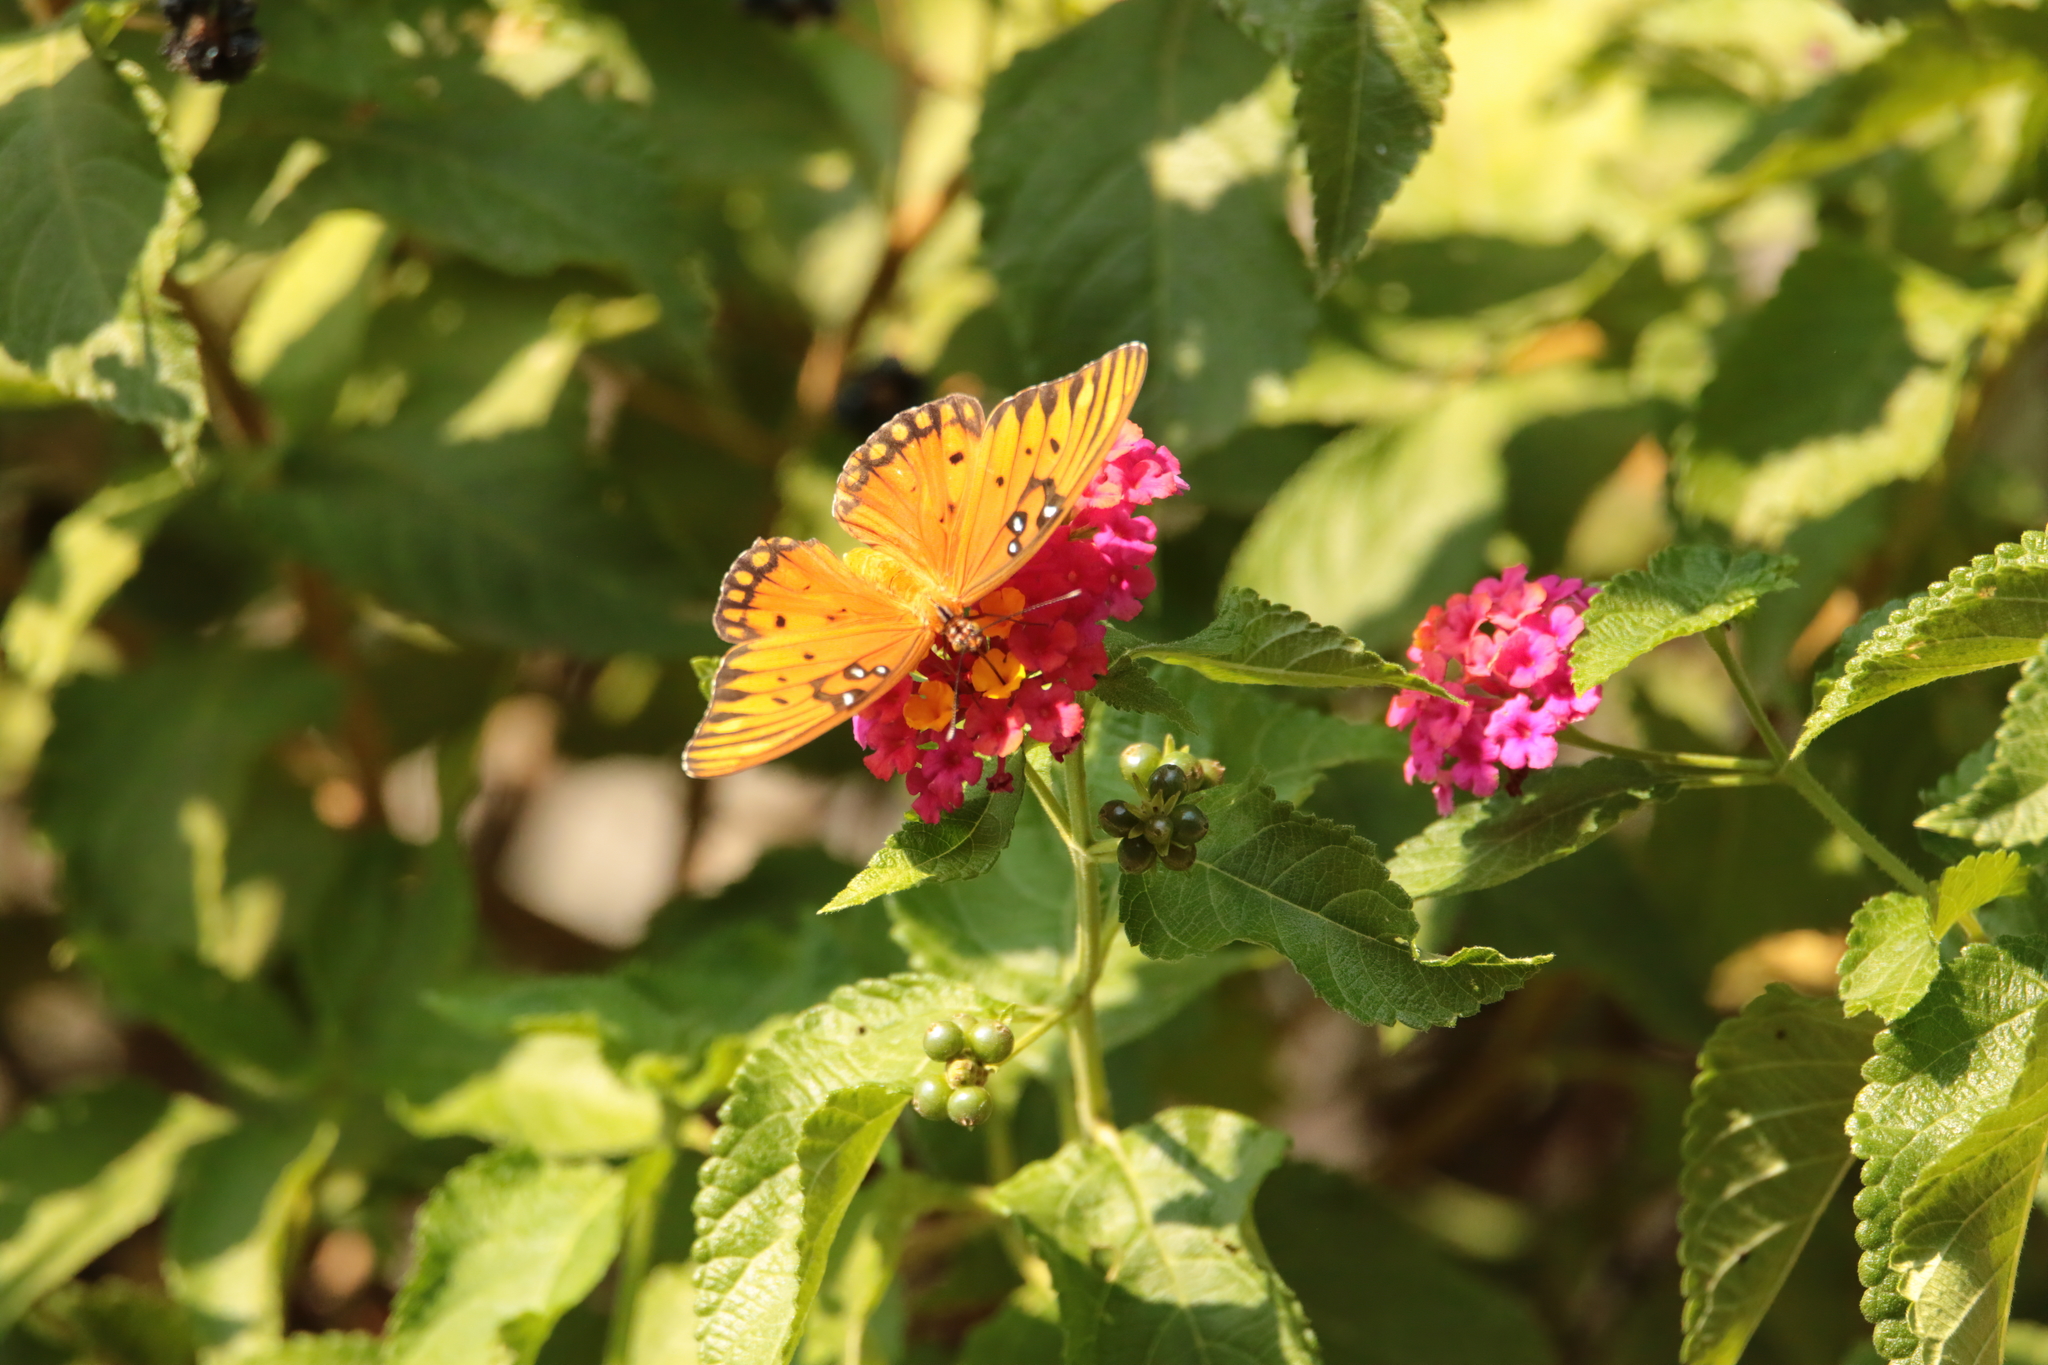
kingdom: Animalia
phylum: Arthropoda
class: Insecta
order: Lepidoptera
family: Nymphalidae
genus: Dione
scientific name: Dione vanillae
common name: Gulf fritillary
